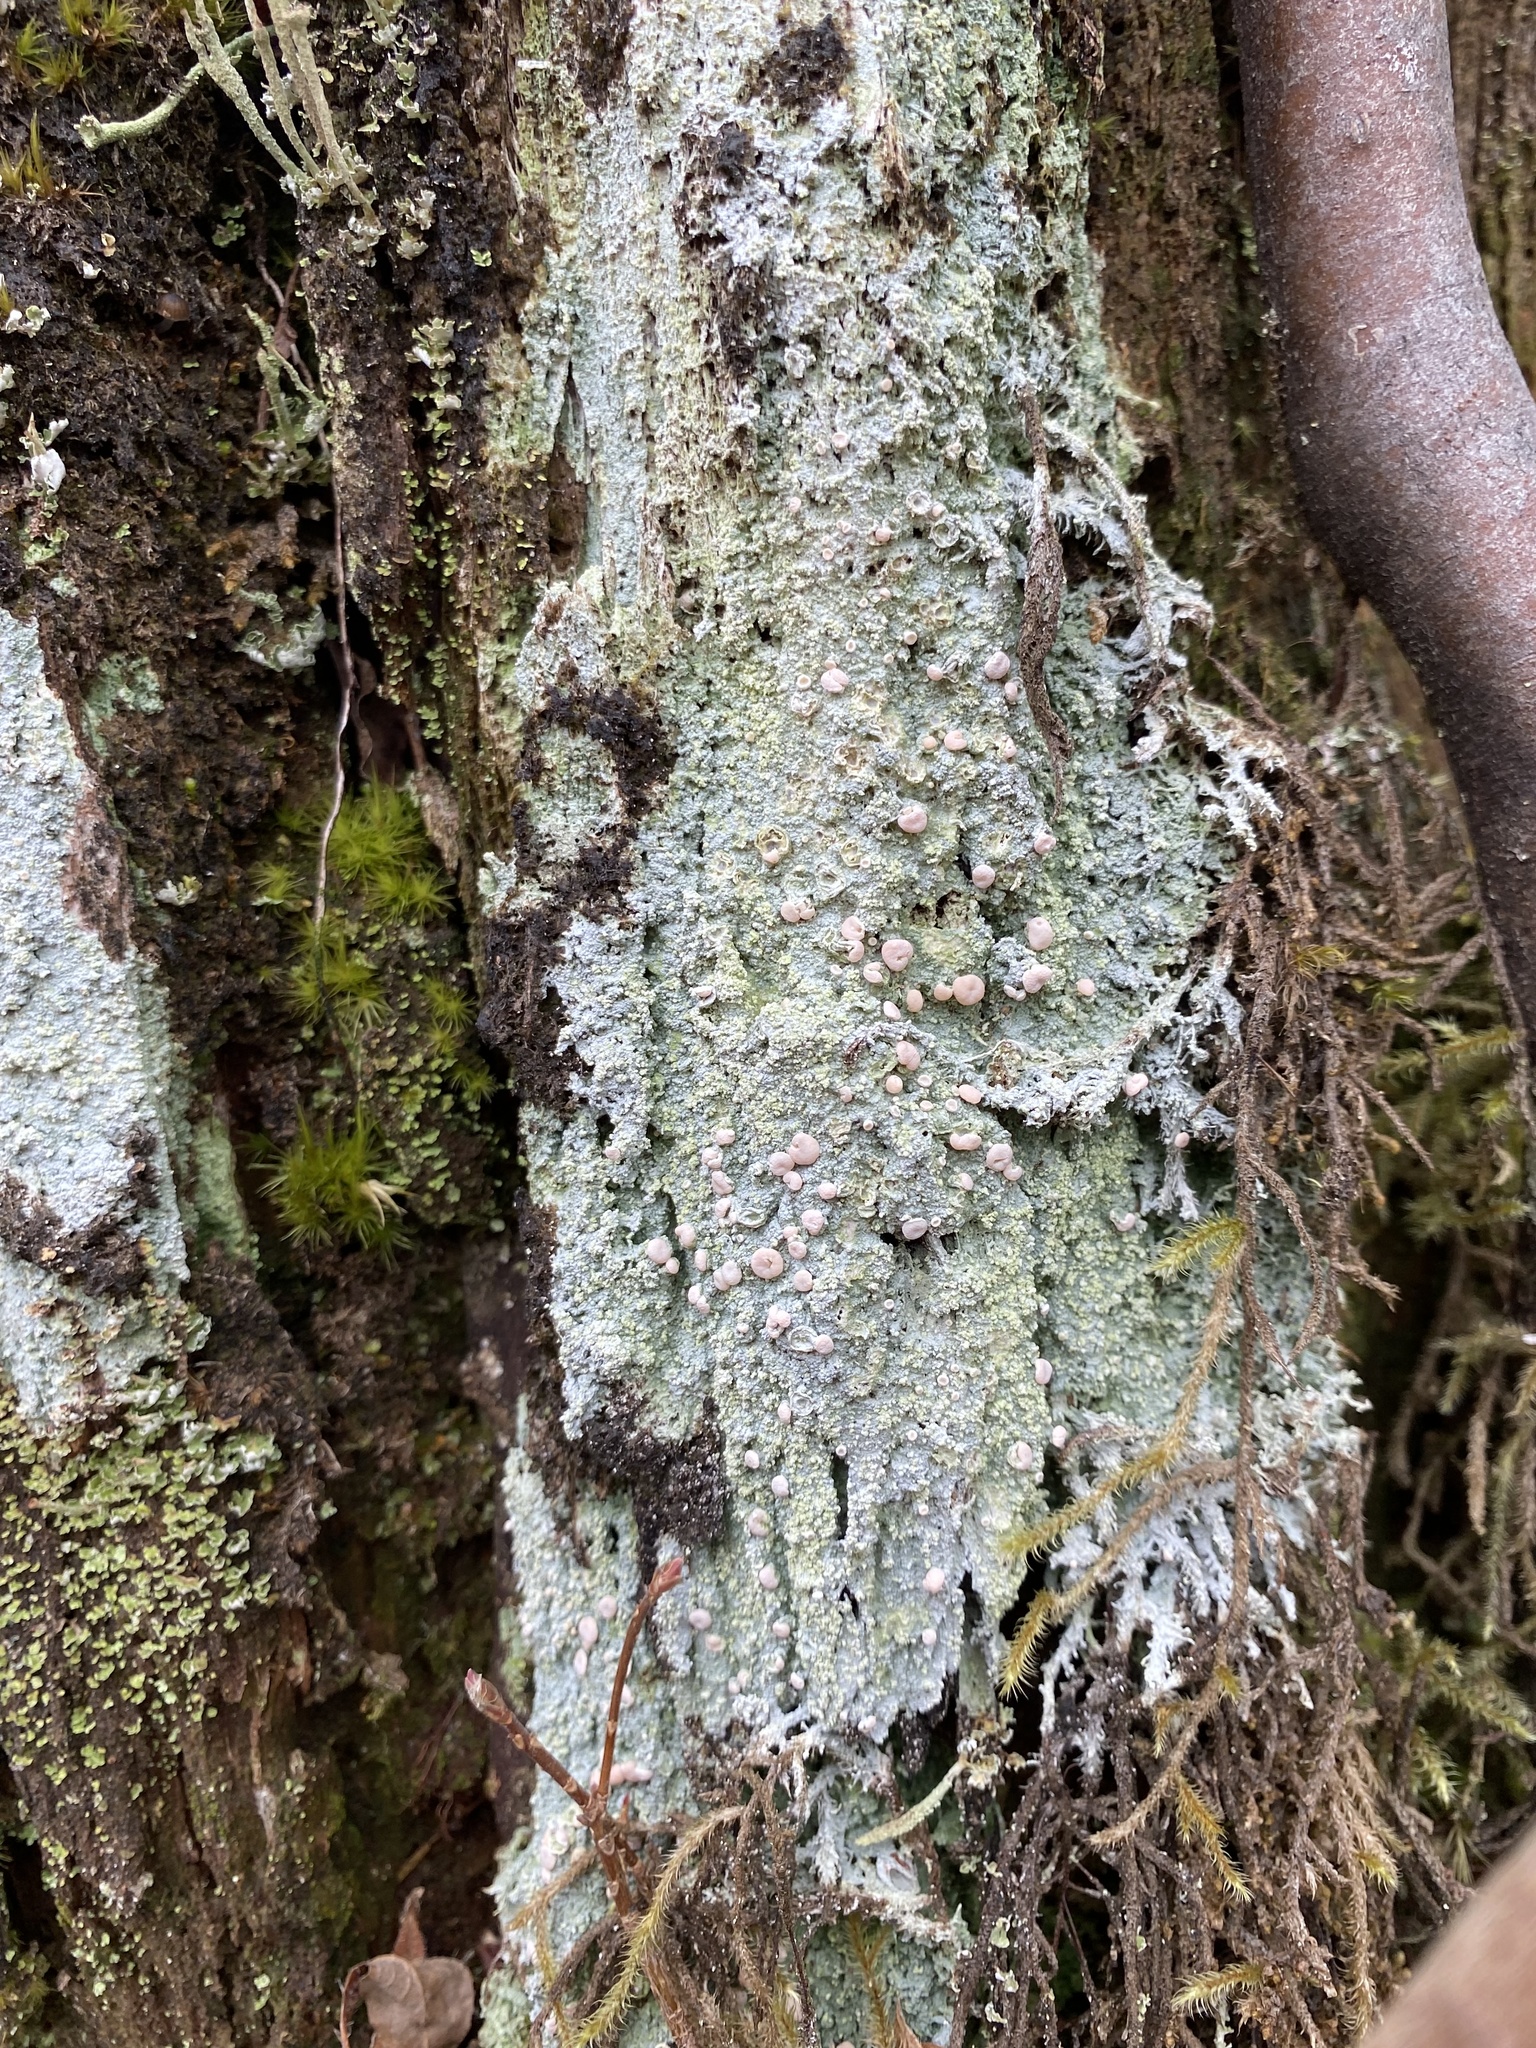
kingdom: Fungi
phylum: Ascomycota
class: Lecanoromycetes
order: Pertusariales
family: Icmadophilaceae
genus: Icmadophila
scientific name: Icmadophila ericetorum
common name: Candy lichen
